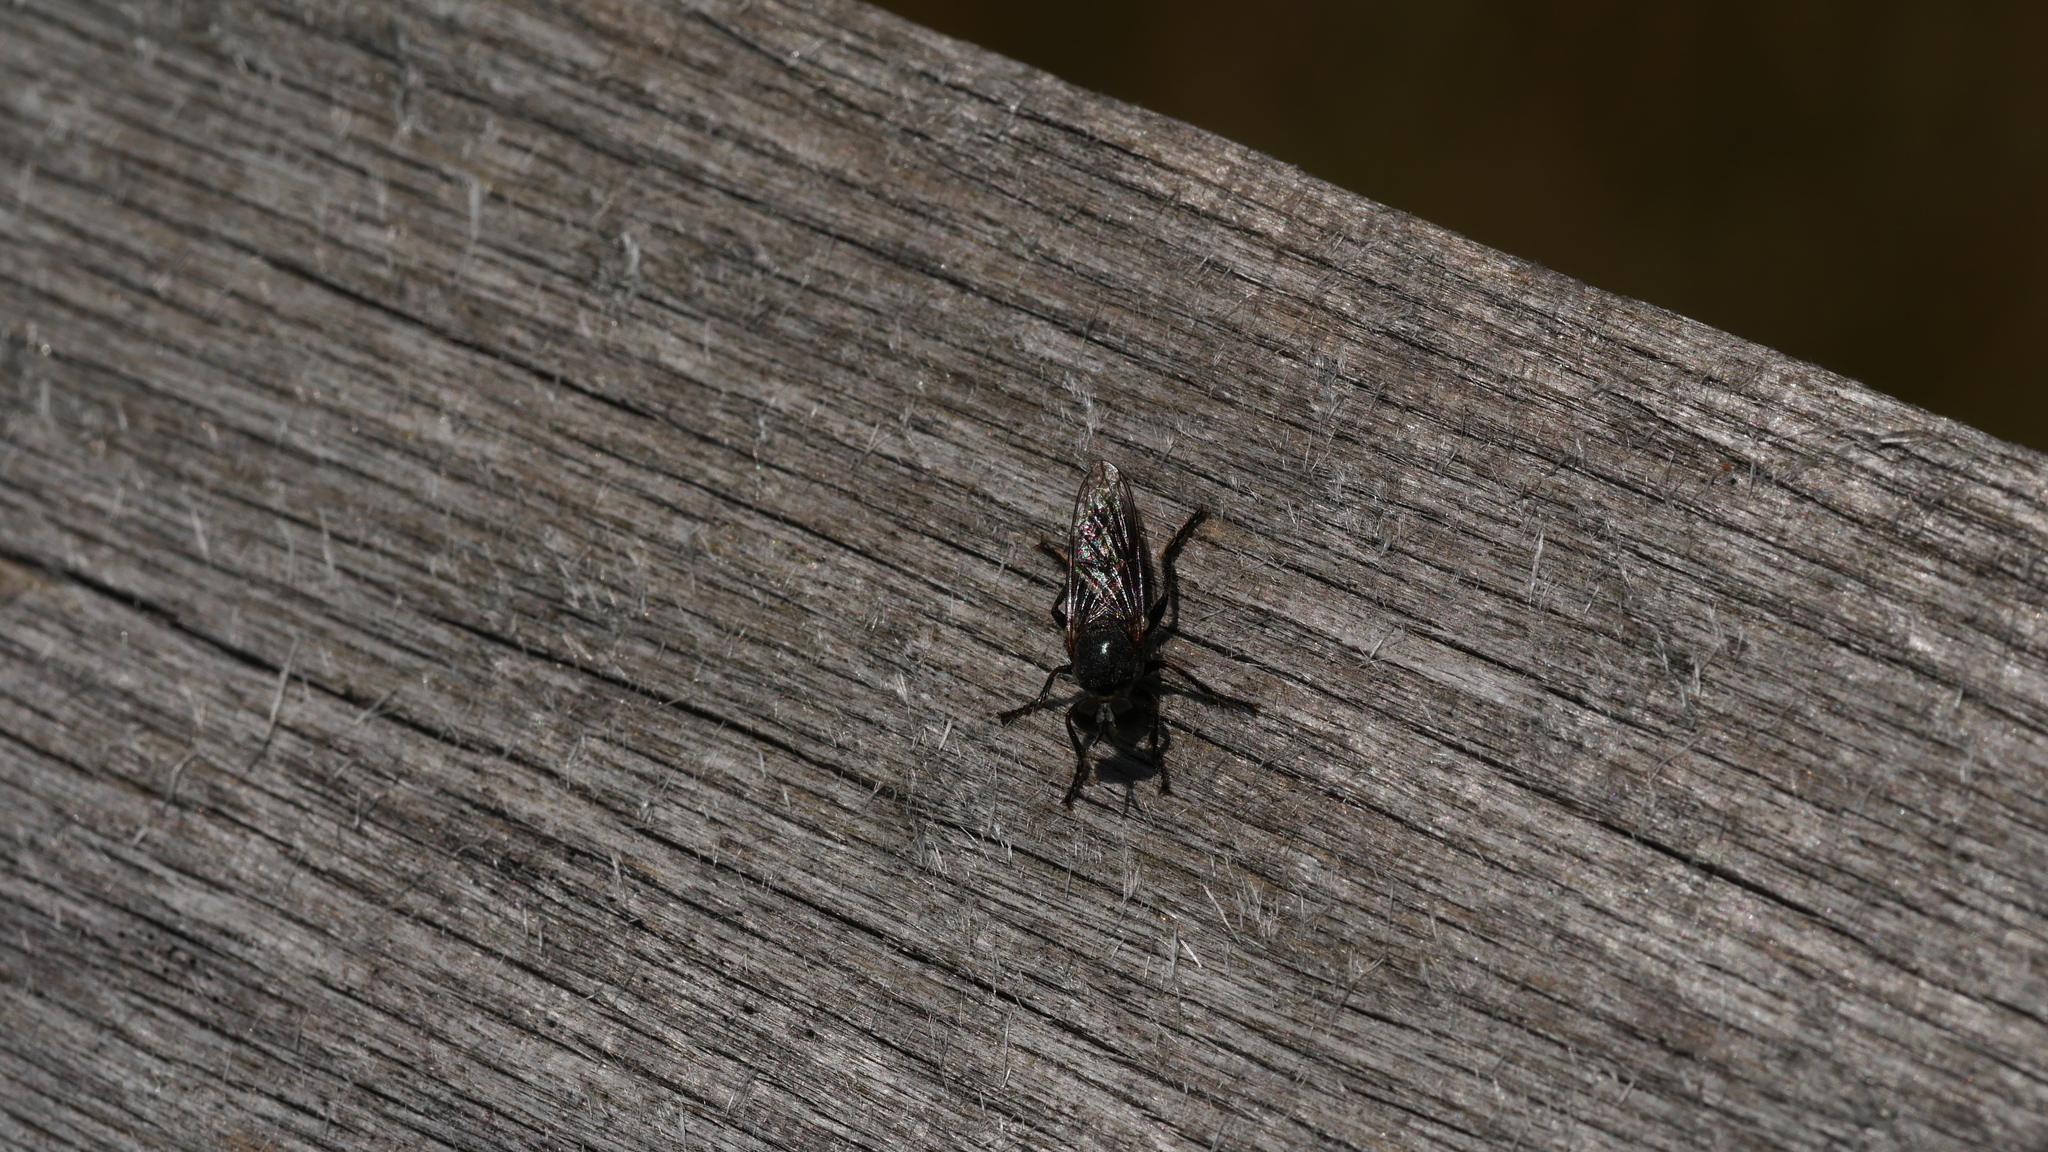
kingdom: Animalia
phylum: Arthropoda
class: Insecta
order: Diptera
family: Asilidae
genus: Atomosia
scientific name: Atomosia puella
